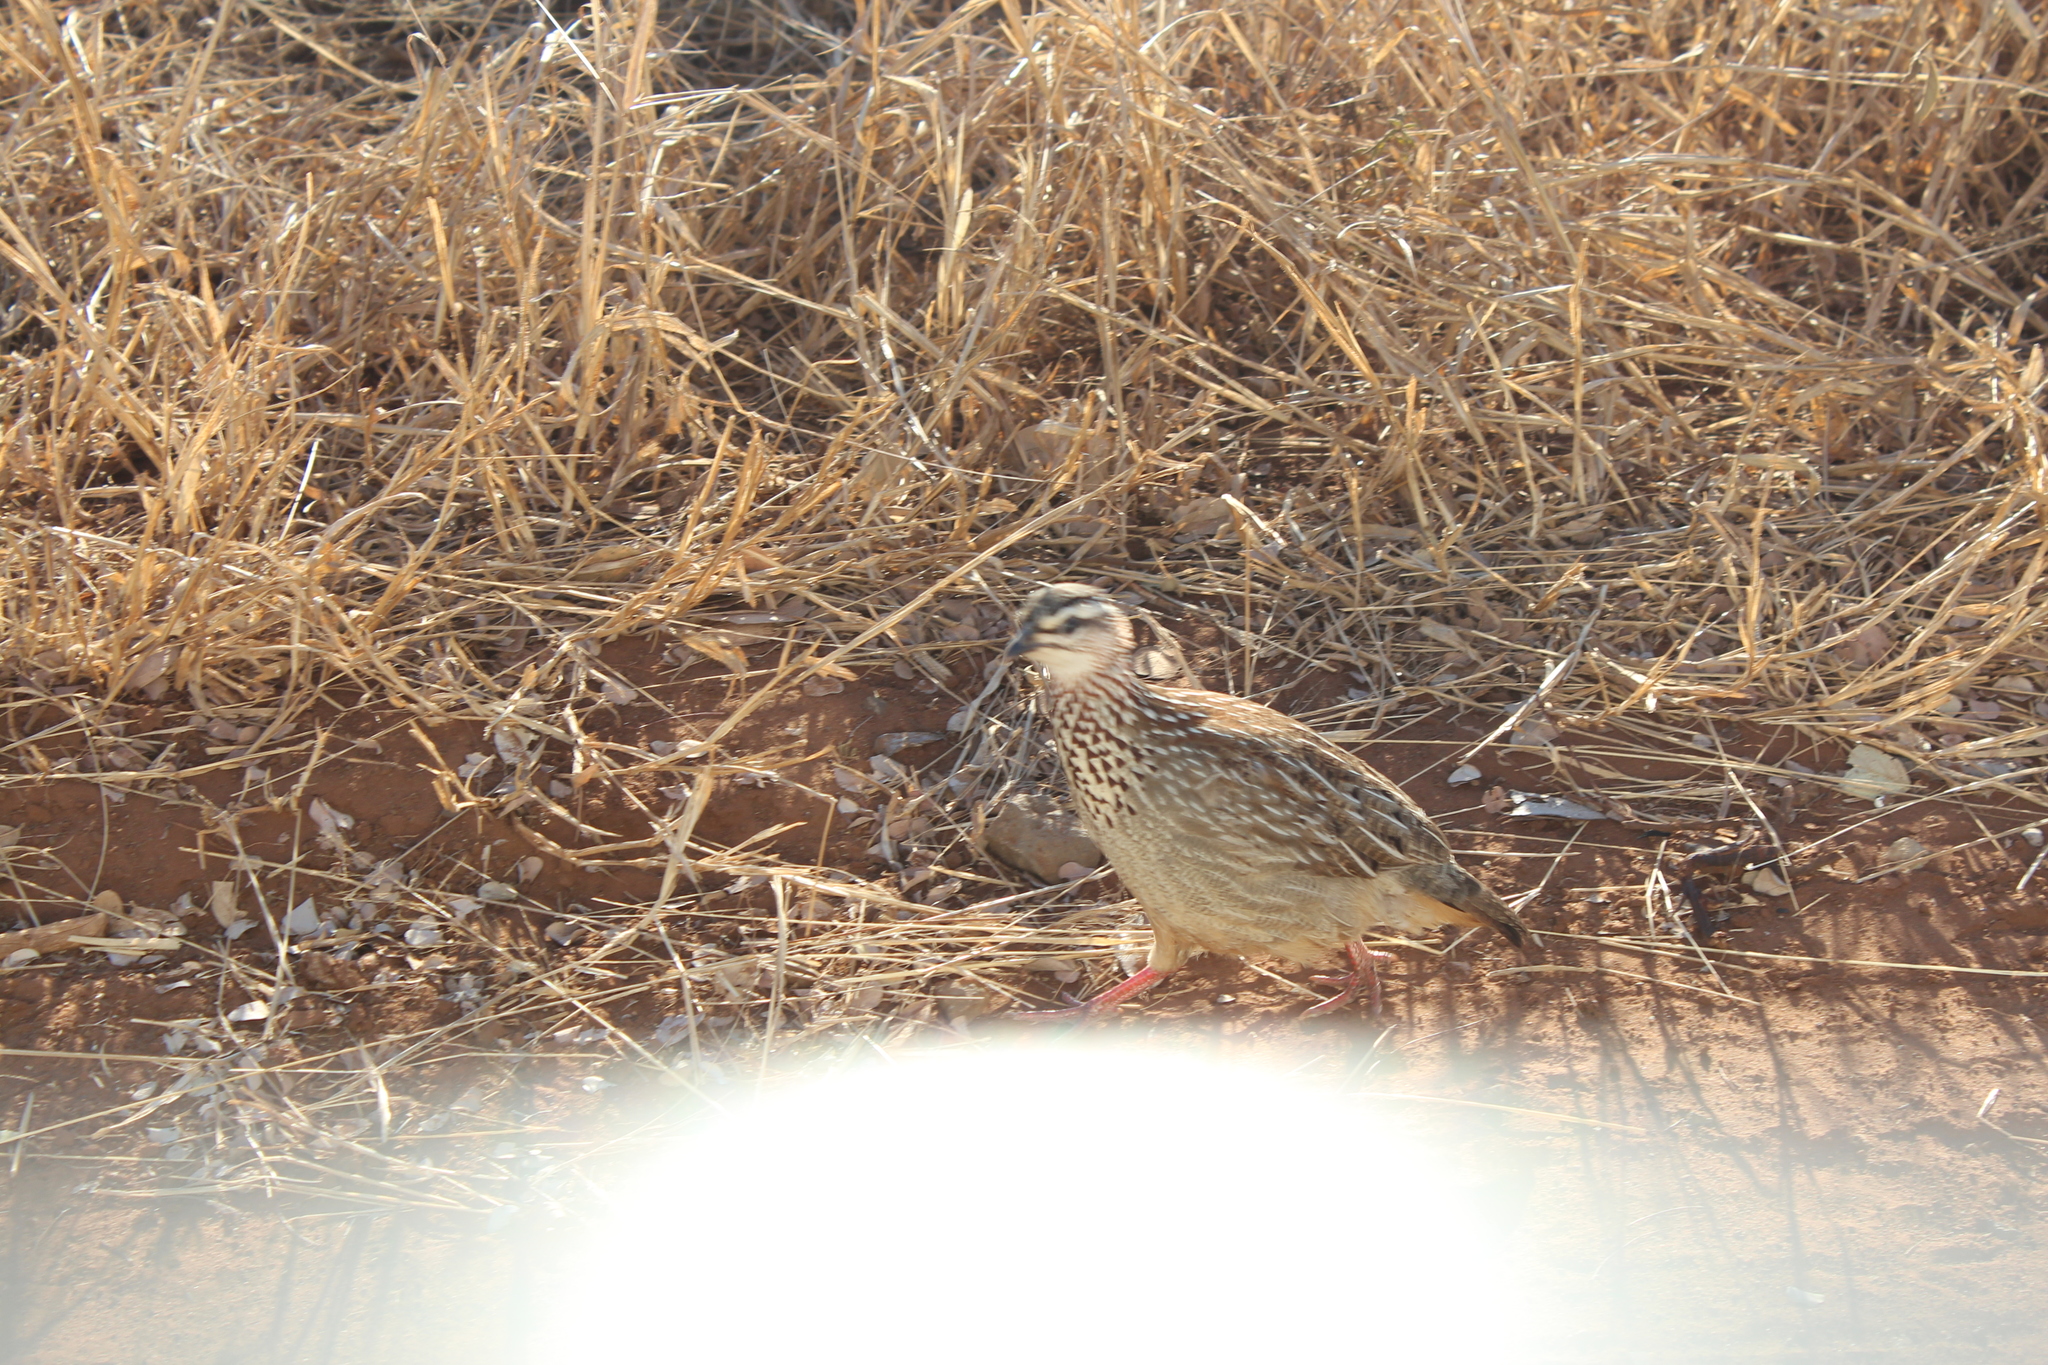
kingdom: Animalia
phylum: Chordata
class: Aves
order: Galliformes
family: Phasianidae
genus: Ortygornis
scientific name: Ortygornis sephaena
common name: Crested francolin
